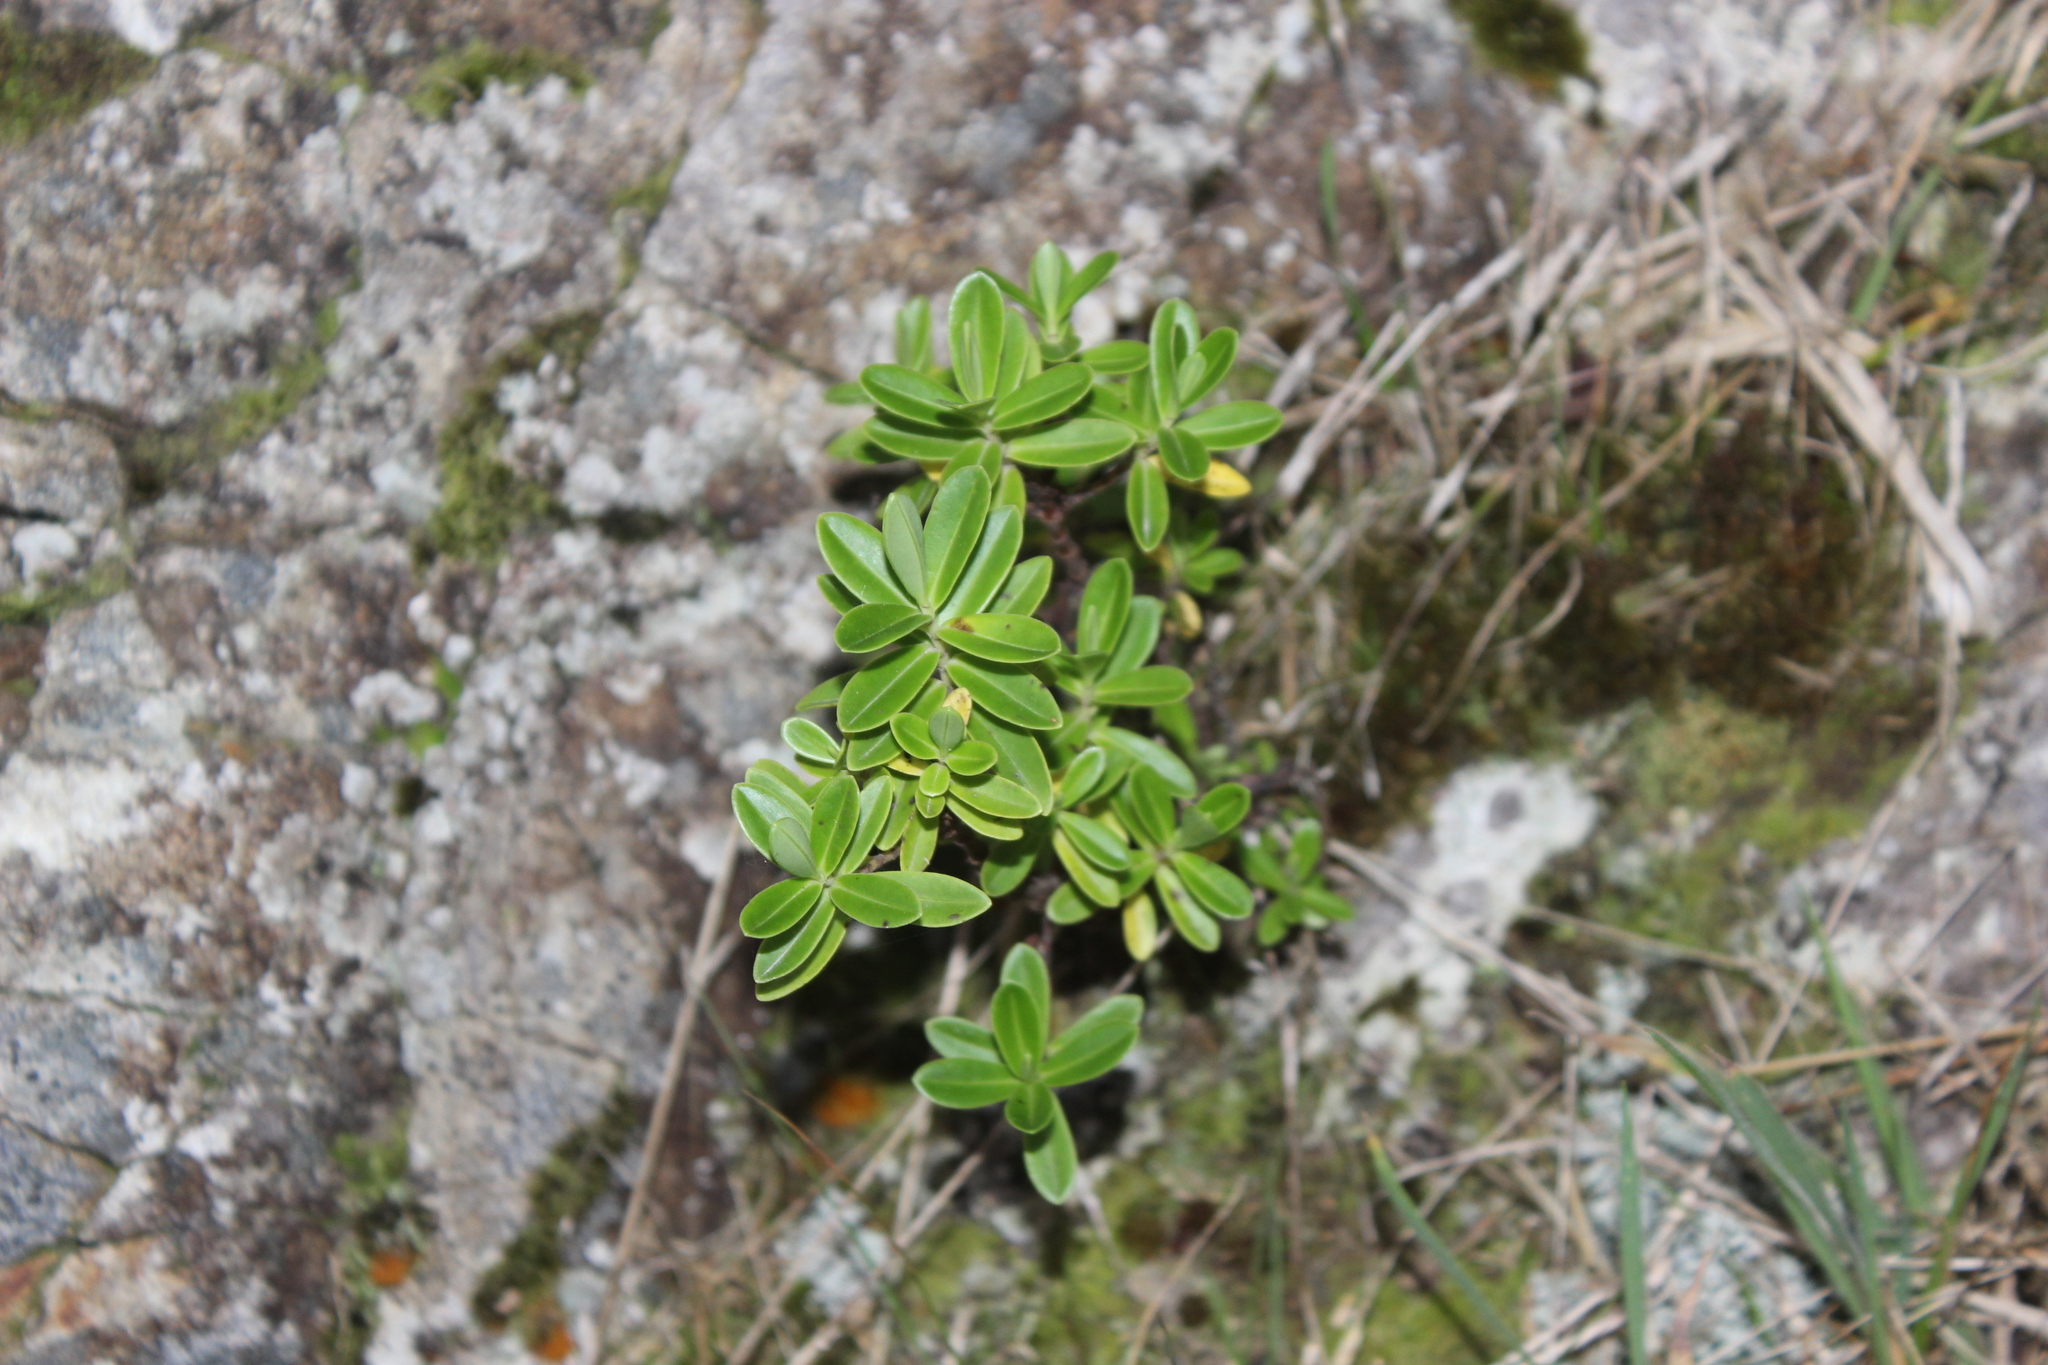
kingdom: Plantae
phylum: Tracheophyta
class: Magnoliopsida
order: Lamiales
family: Plantaginaceae
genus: Veronica
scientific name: Veronica stricta
